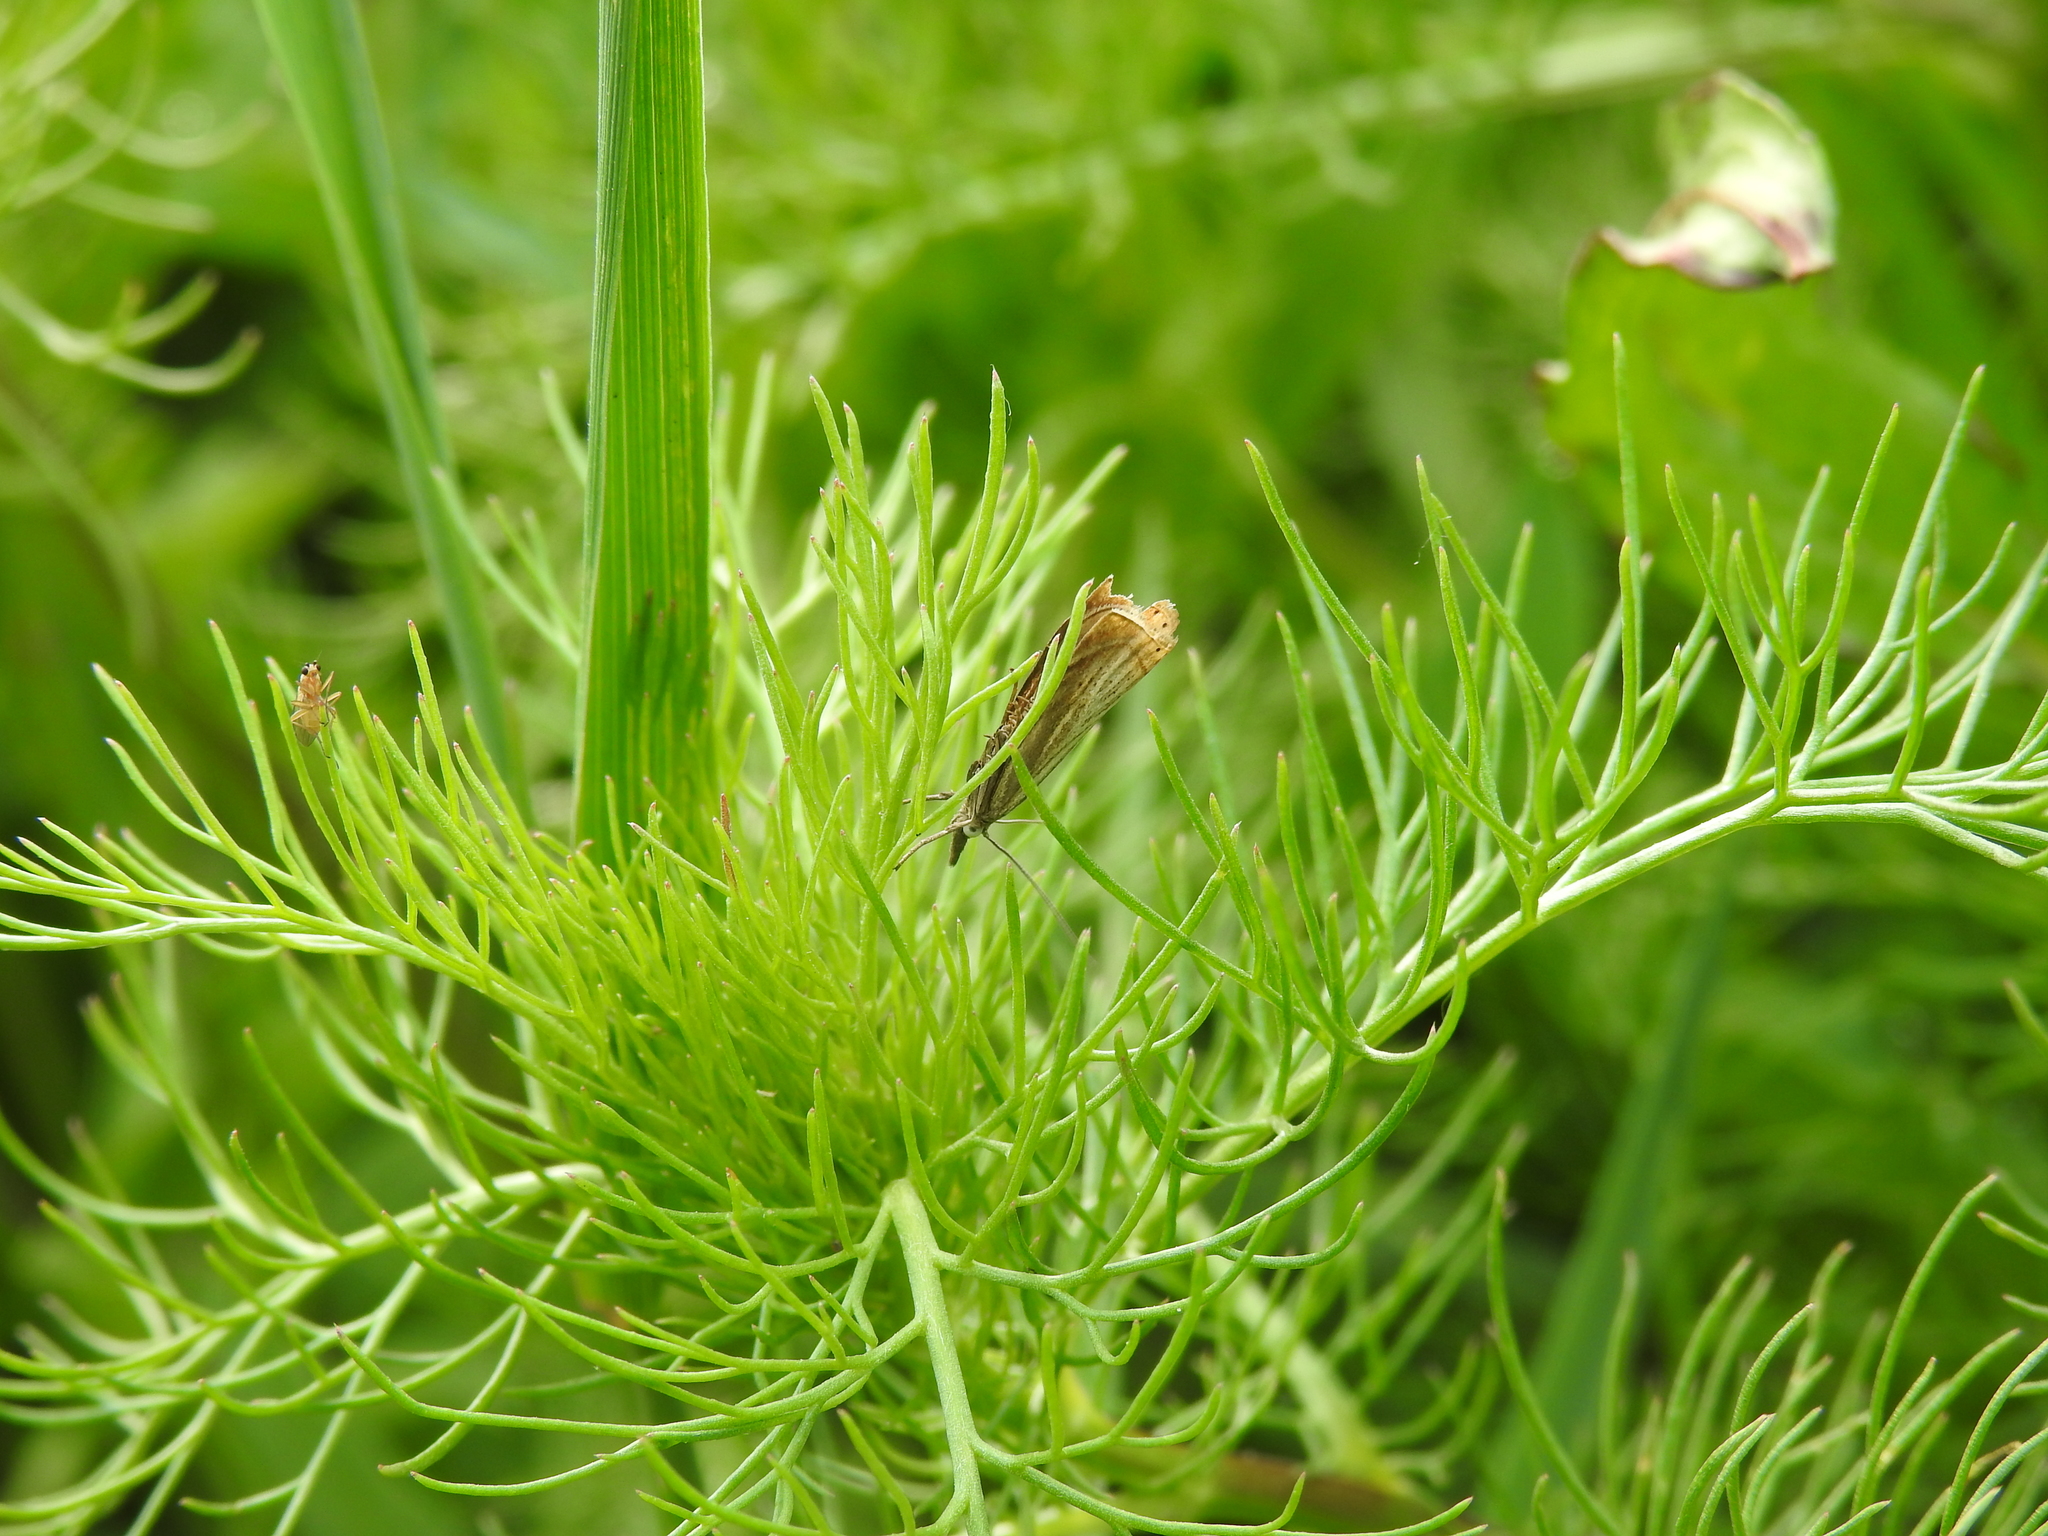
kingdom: Animalia
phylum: Arthropoda
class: Insecta
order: Lepidoptera
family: Crambidae
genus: Chrysoteuchia
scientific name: Chrysoteuchia culmella
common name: Garden grass-veneer
